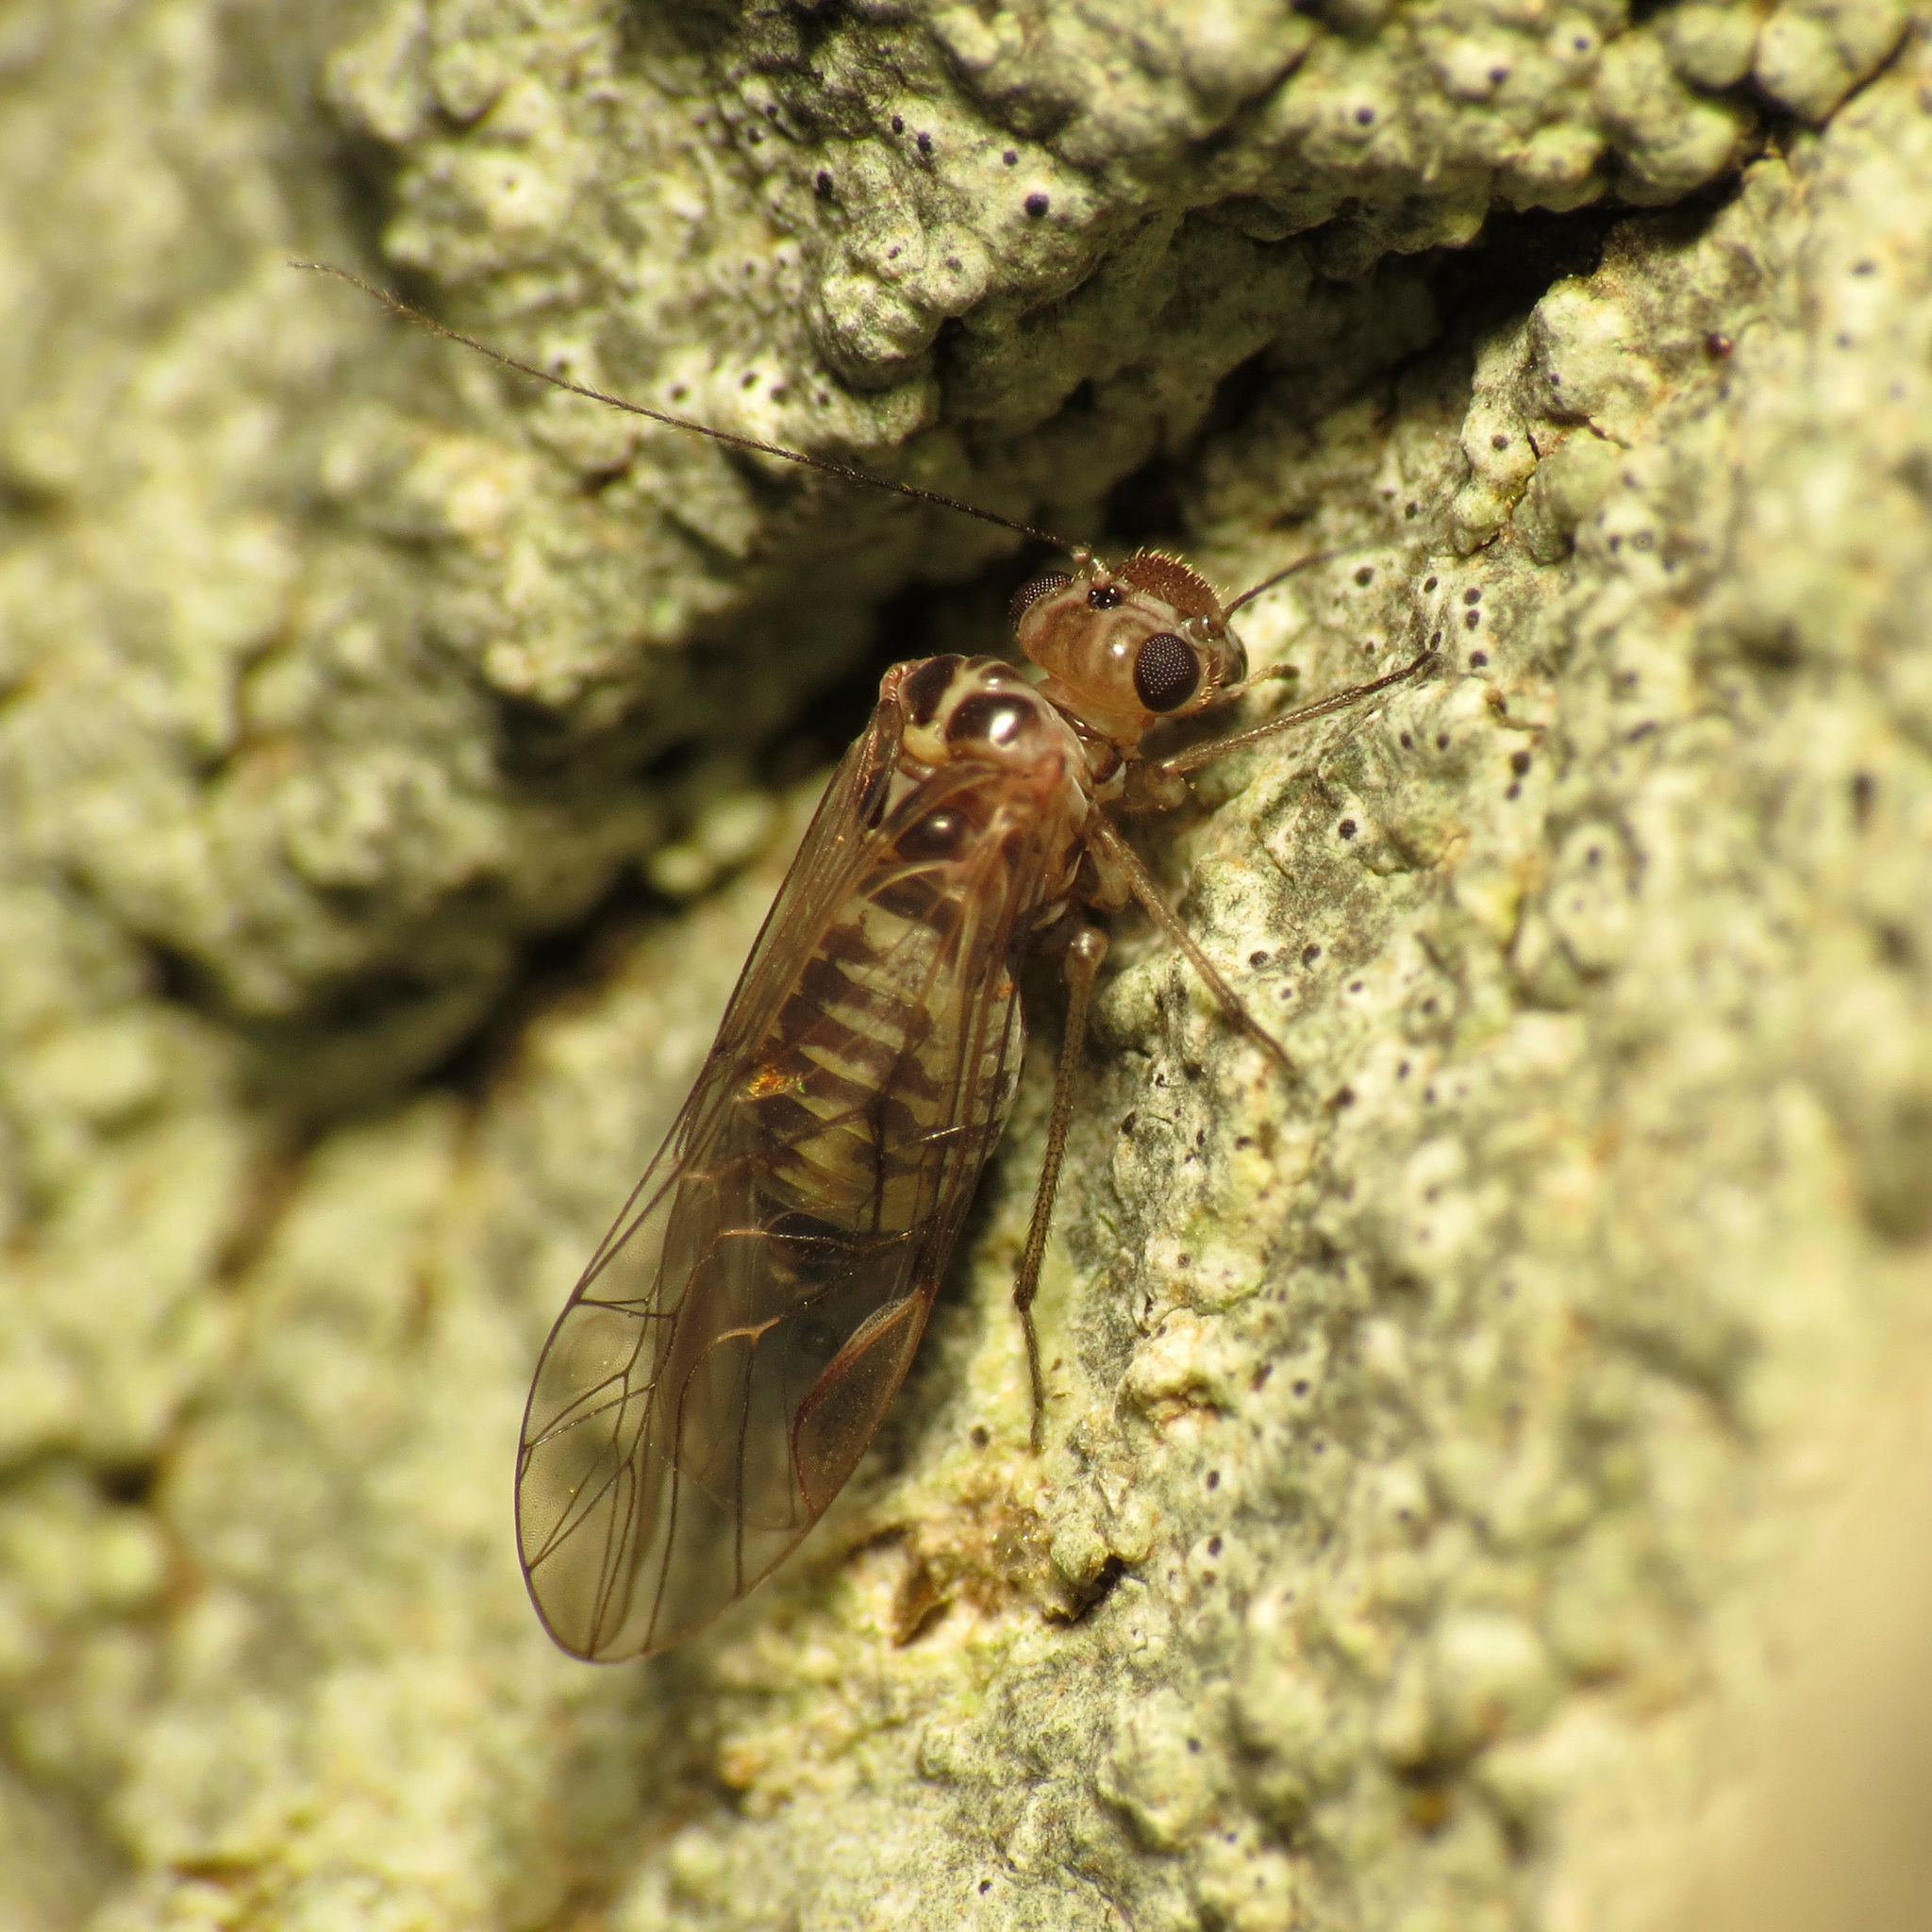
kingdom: Animalia
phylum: Arthropoda
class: Insecta
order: Psocodea
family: Dasydemellidae
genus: Teliapsocus
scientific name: Teliapsocus conterminus
